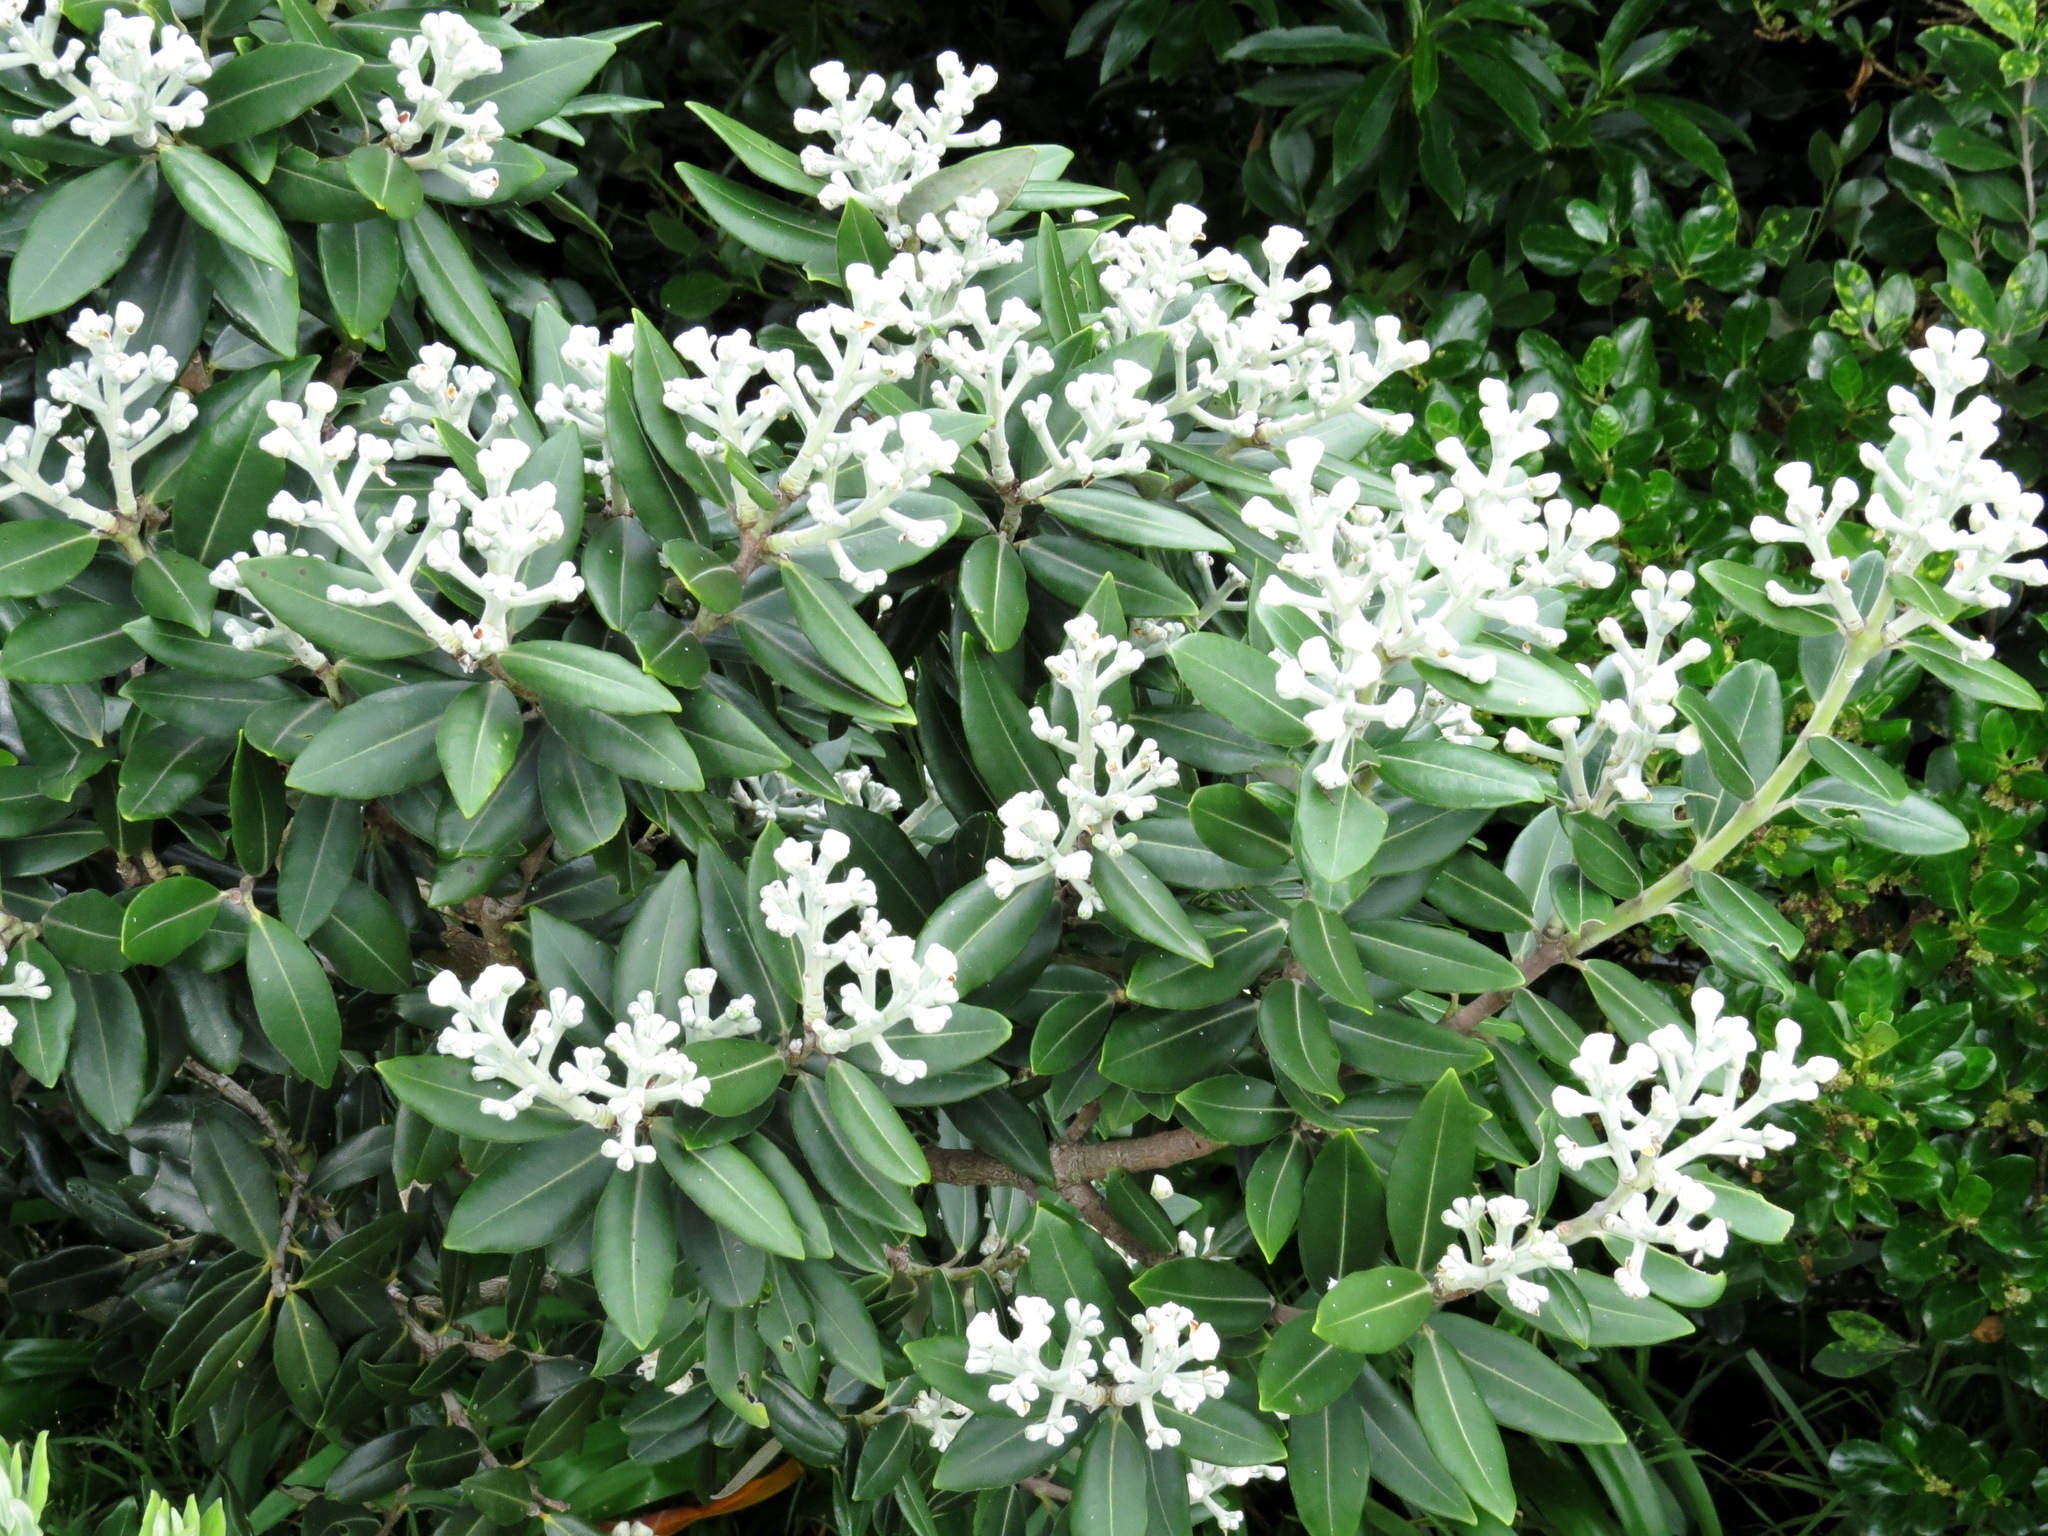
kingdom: Plantae
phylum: Tracheophyta
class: Magnoliopsida
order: Myrtales
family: Myrtaceae
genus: Metrosideros
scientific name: Metrosideros excelsa
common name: New zealand christmastree
